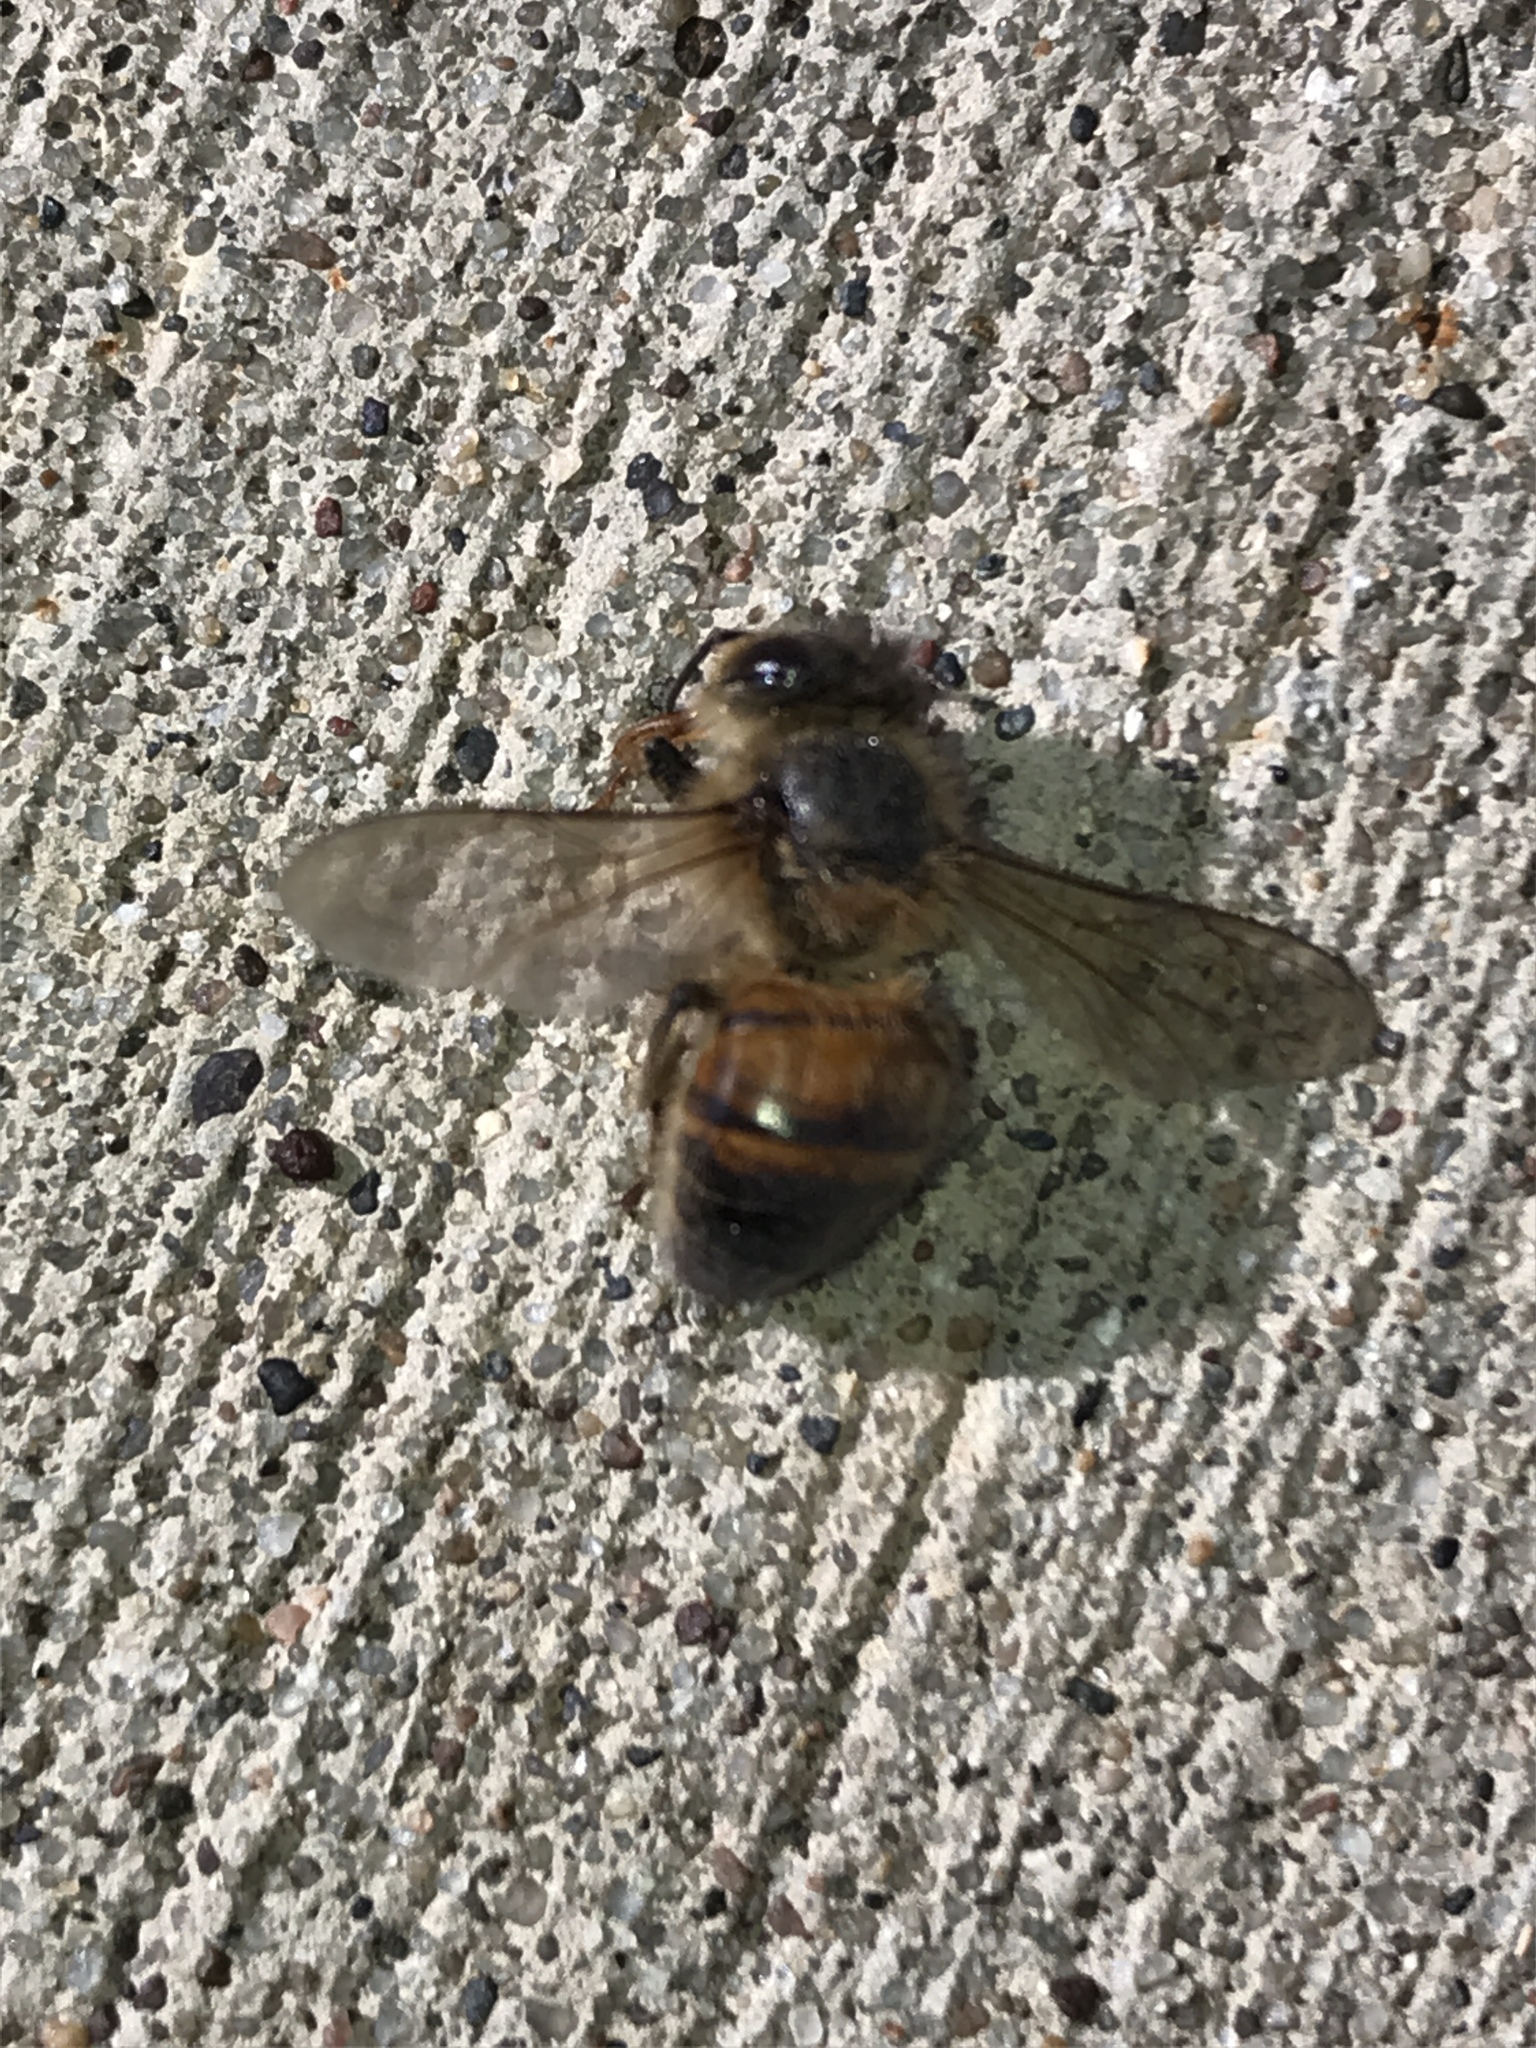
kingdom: Animalia
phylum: Arthropoda
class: Insecta
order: Hymenoptera
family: Apidae
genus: Apis
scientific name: Apis mellifera
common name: Honey bee
